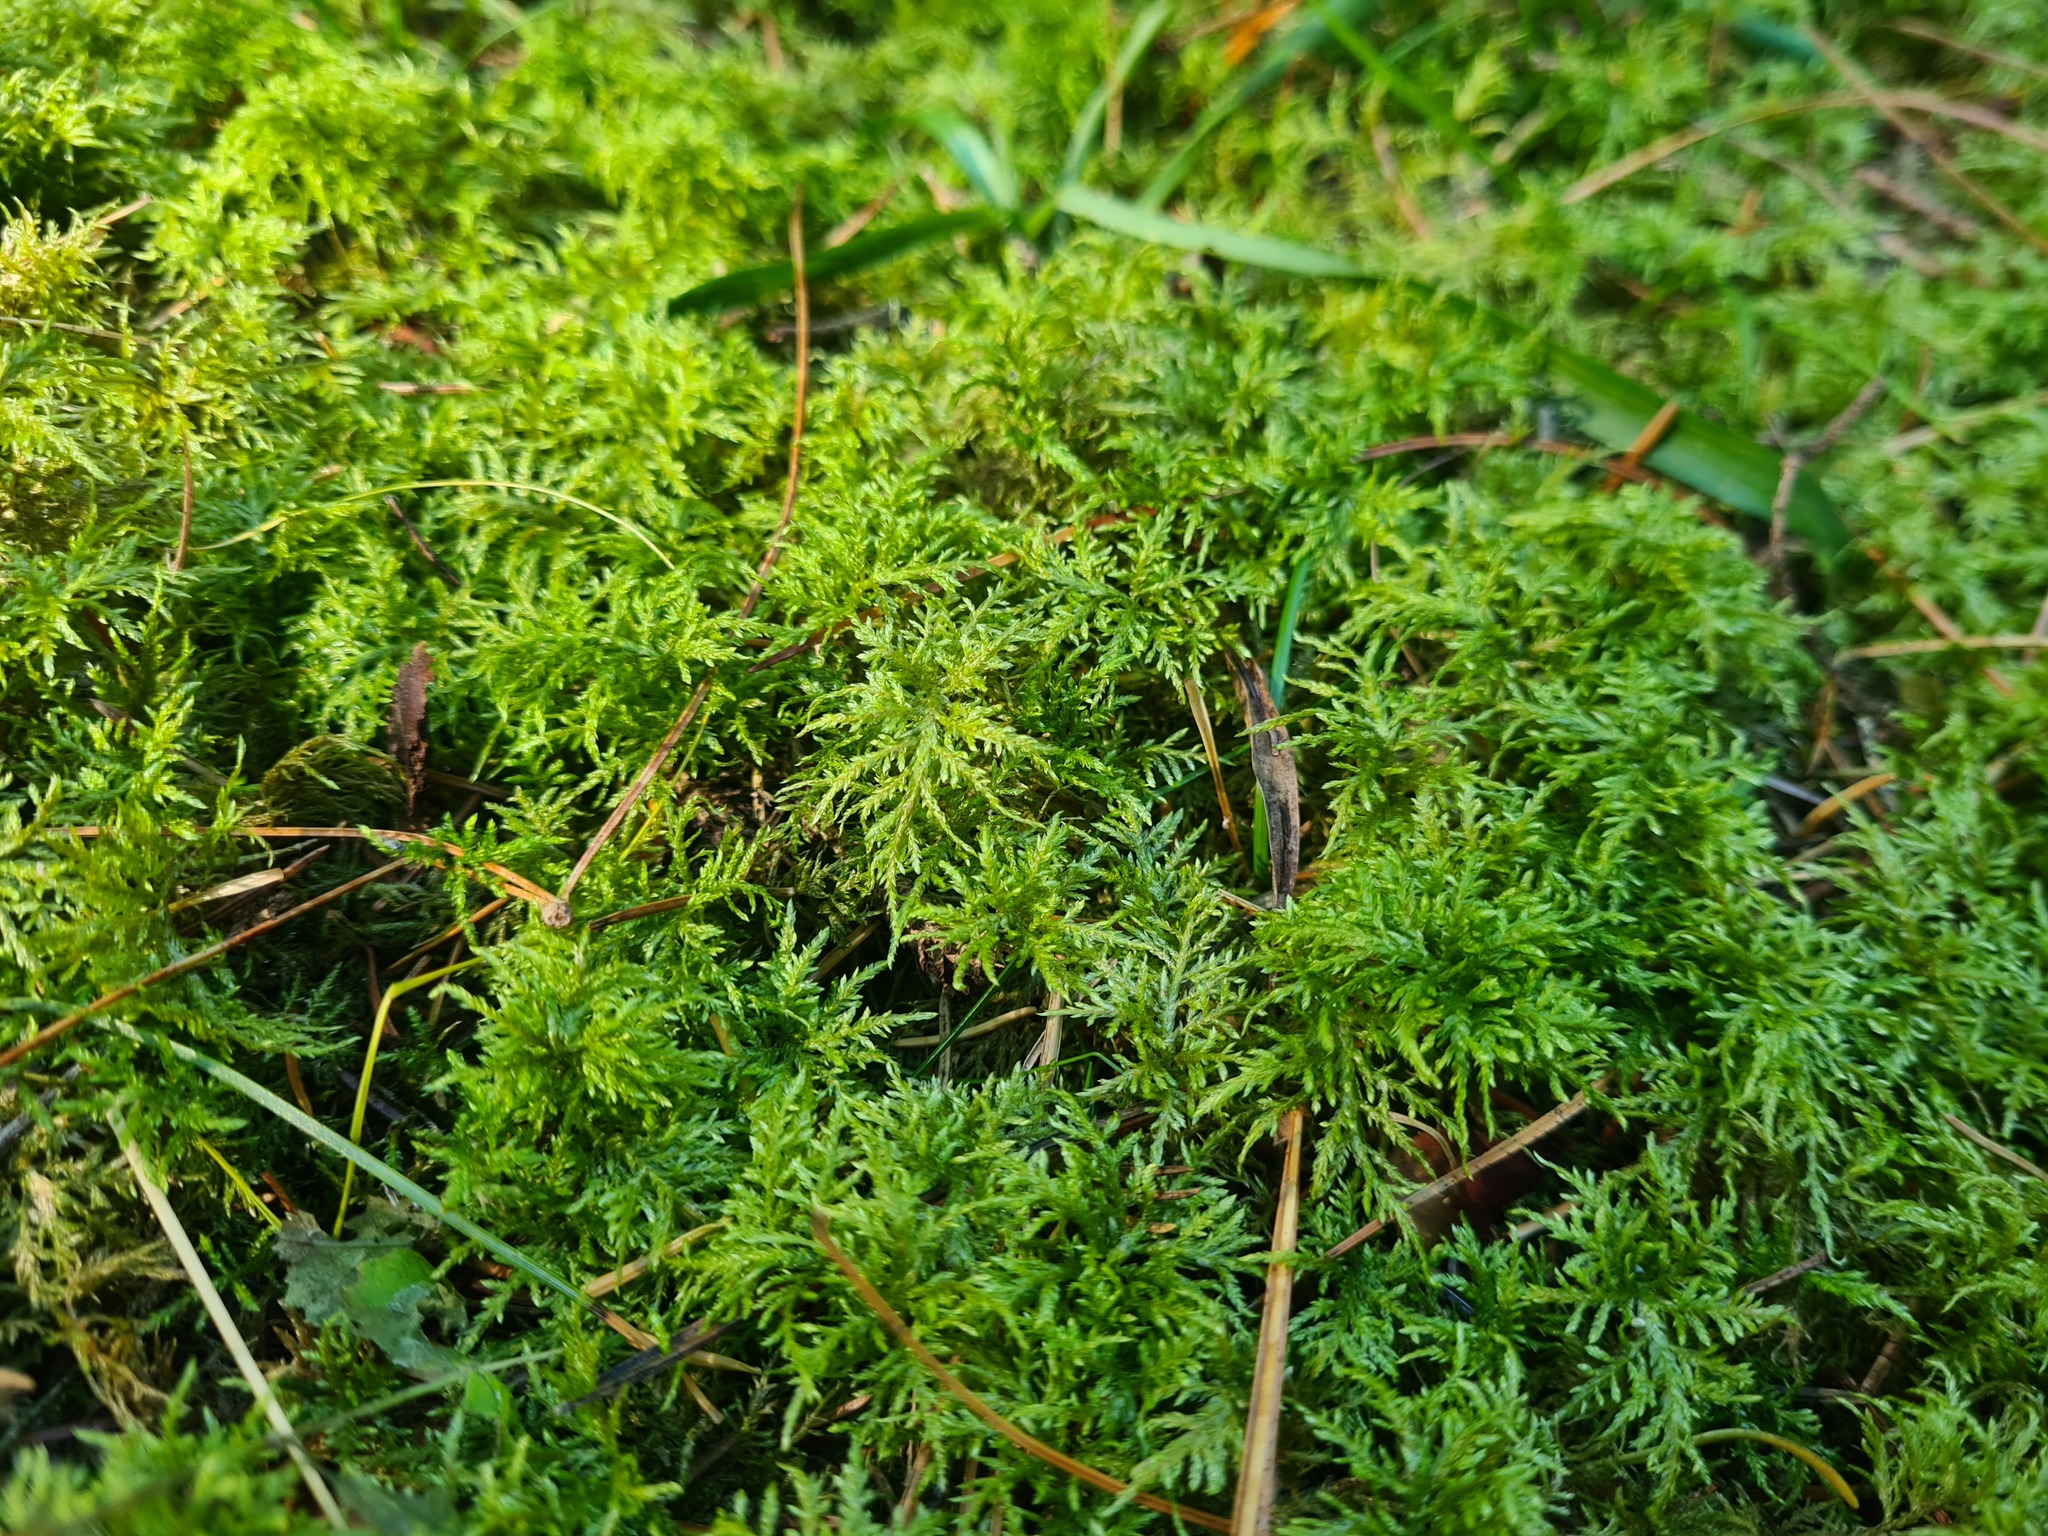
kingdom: Plantae
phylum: Bryophyta
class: Bryopsida
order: Hypnales
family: Hylocomiaceae
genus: Hylocomium
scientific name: Hylocomium splendens
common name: Stairstep moss
